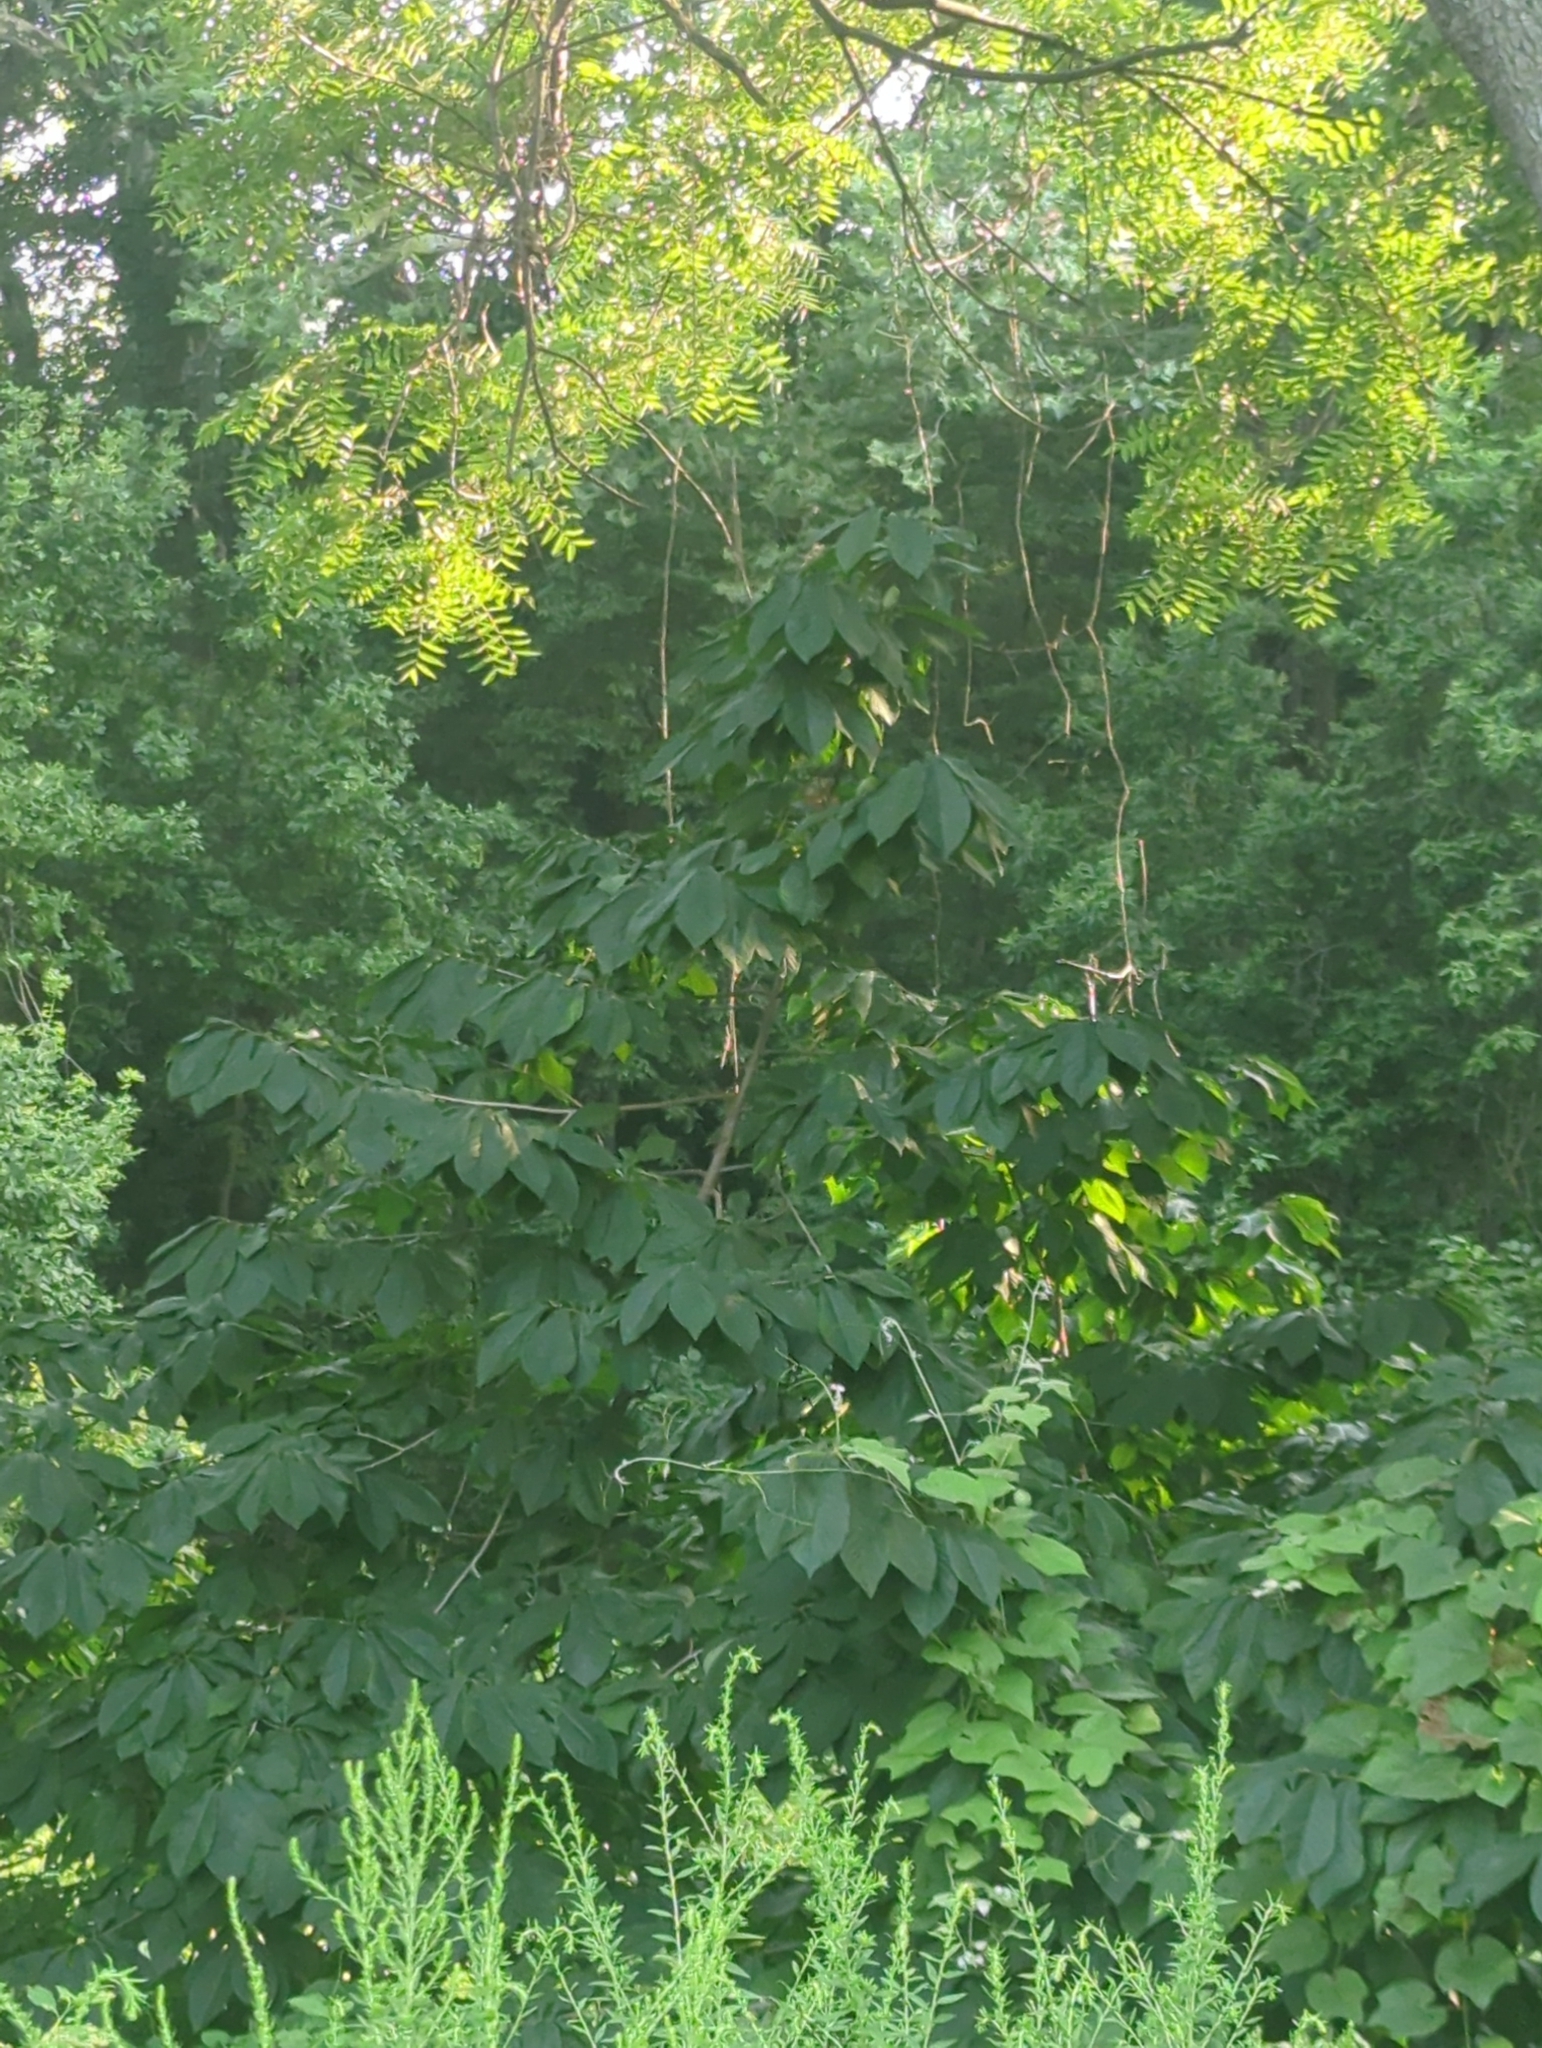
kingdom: Plantae
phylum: Tracheophyta
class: Magnoliopsida
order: Magnoliales
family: Annonaceae
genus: Asimina
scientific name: Asimina triloba
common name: Dog-banana
